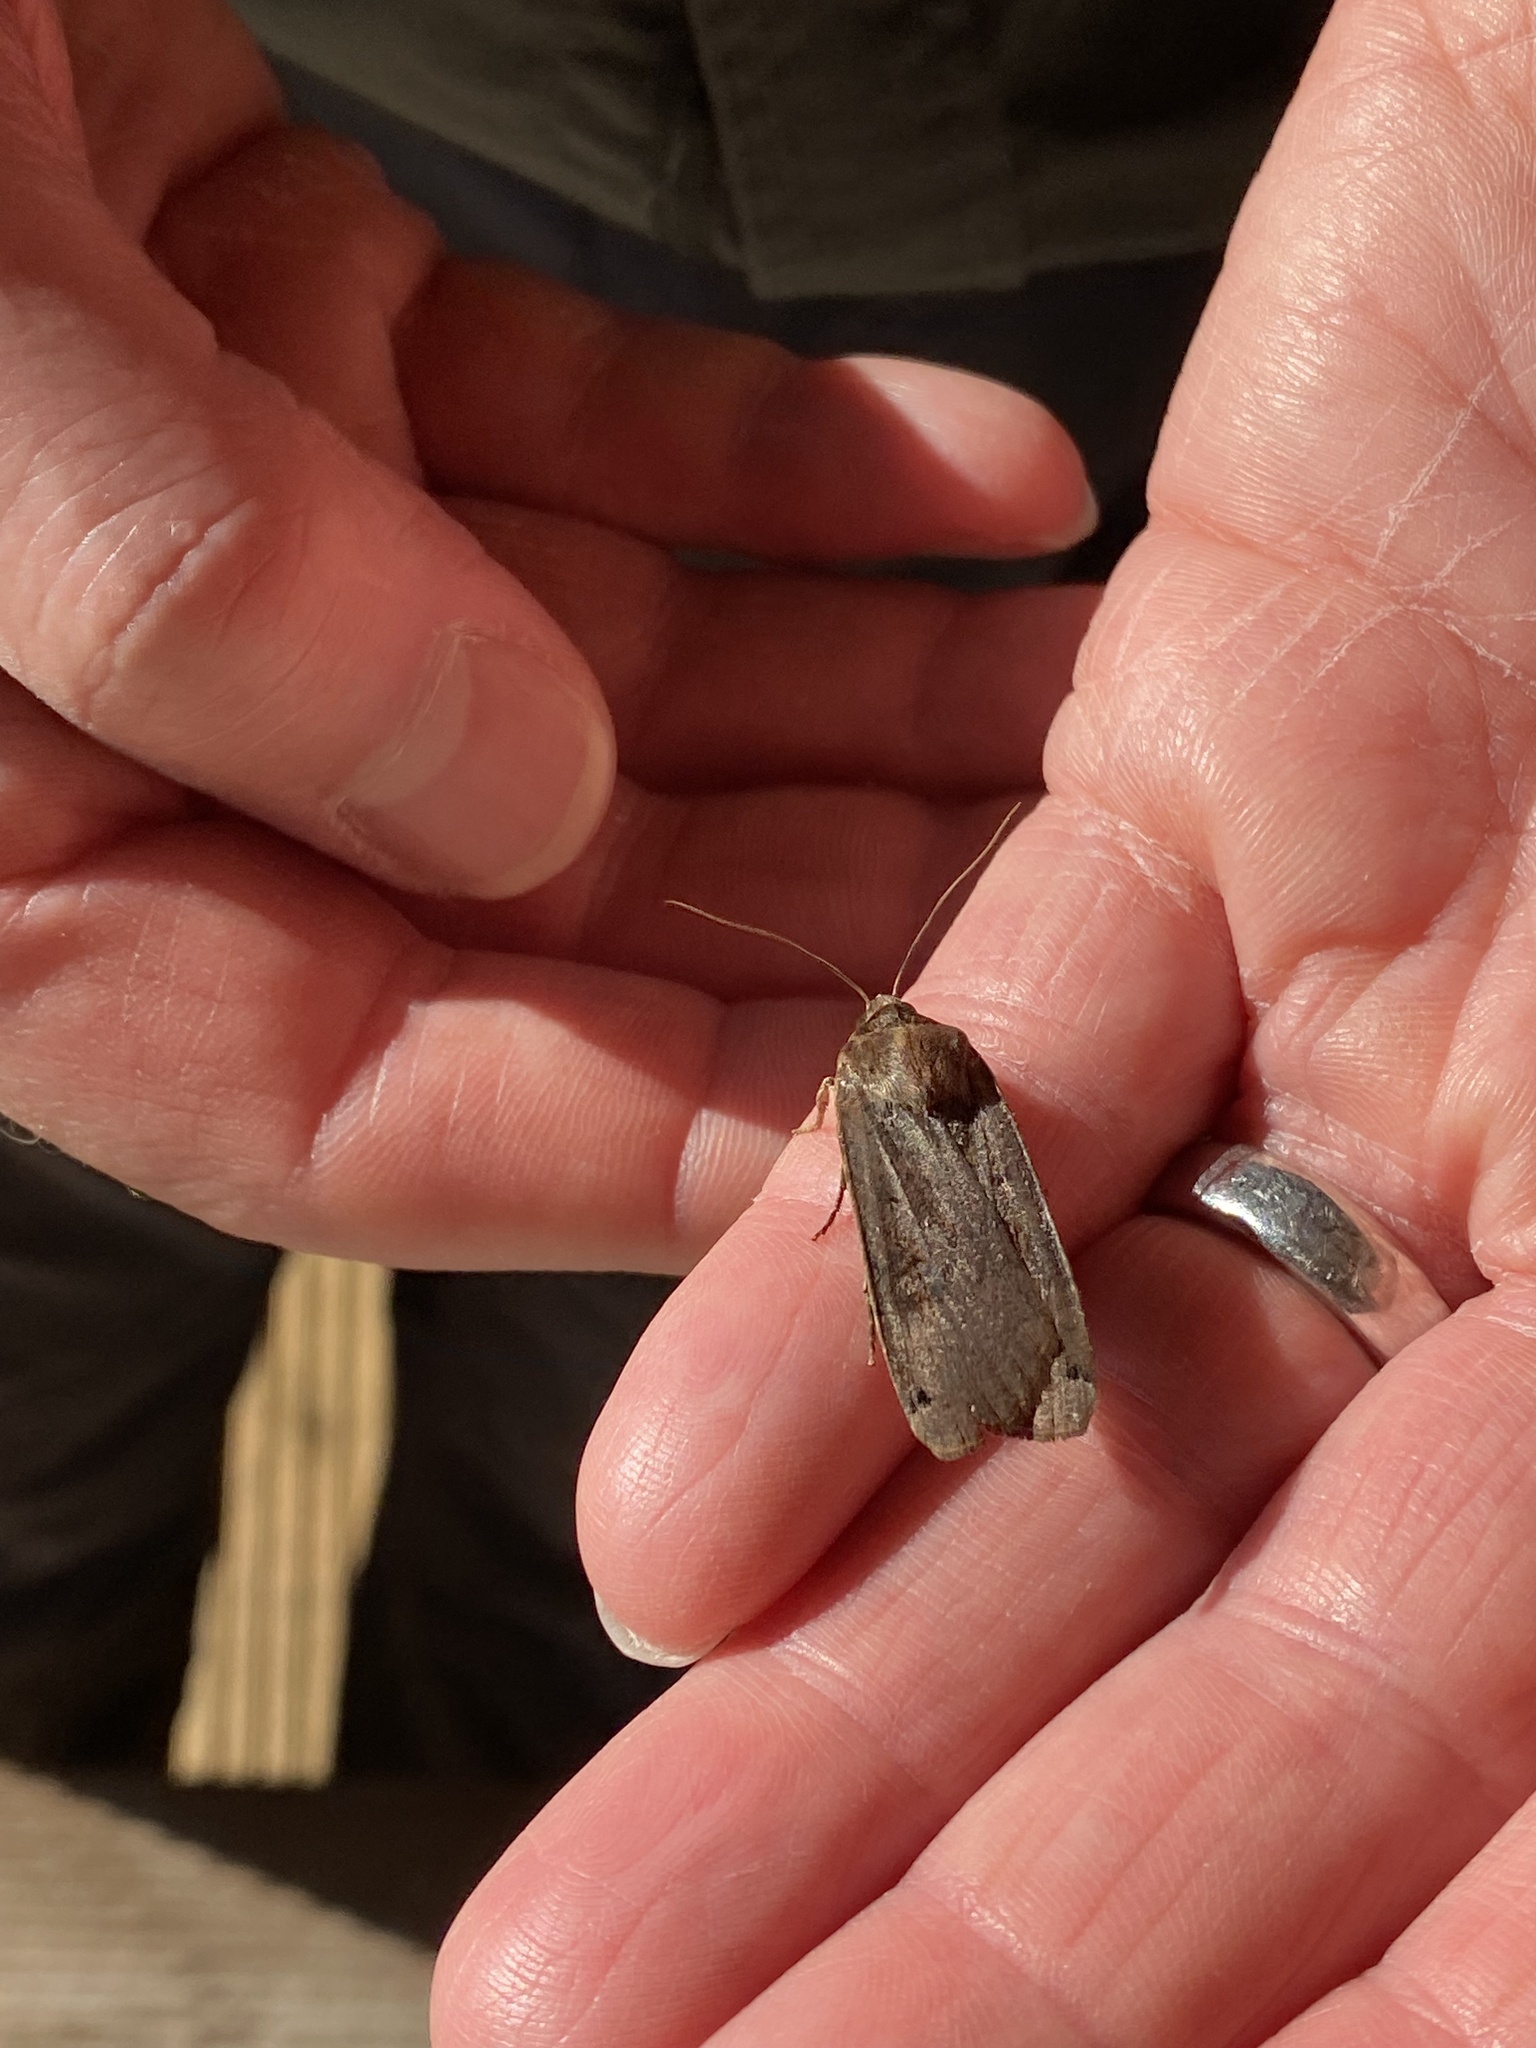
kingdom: Animalia
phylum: Arthropoda
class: Insecta
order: Lepidoptera
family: Noctuidae
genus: Noctua
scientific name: Noctua pronuba
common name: Large yellow underwing
